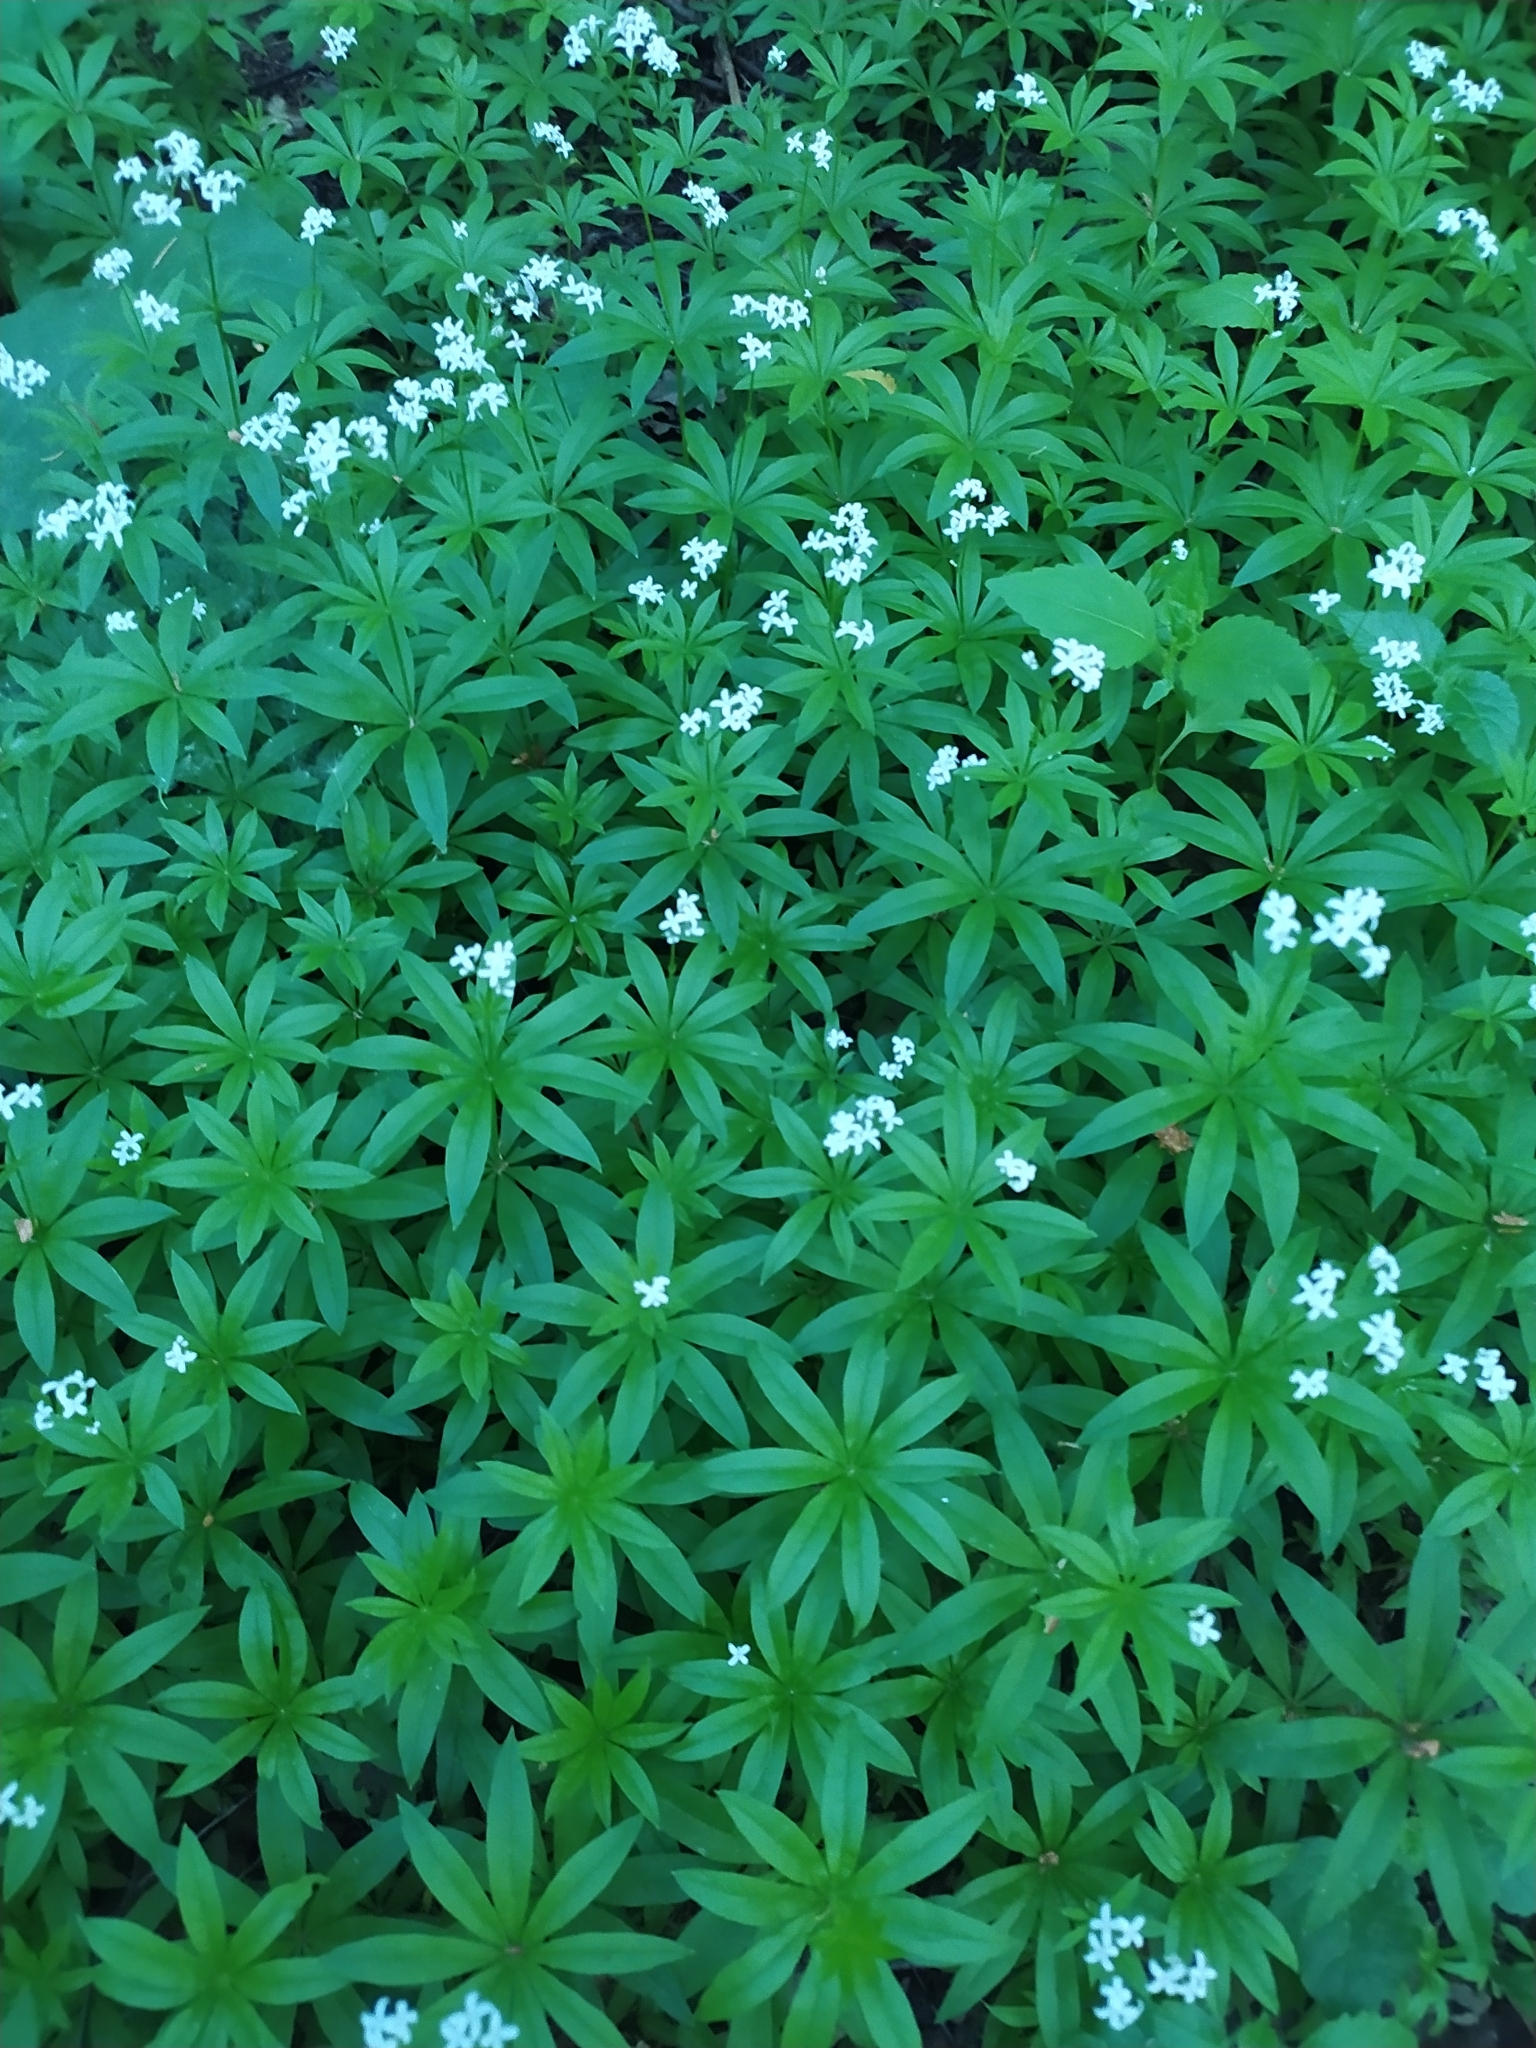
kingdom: Plantae
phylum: Tracheophyta
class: Magnoliopsida
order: Gentianales
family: Rubiaceae
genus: Galium
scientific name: Galium odoratum
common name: Sweet woodruff
